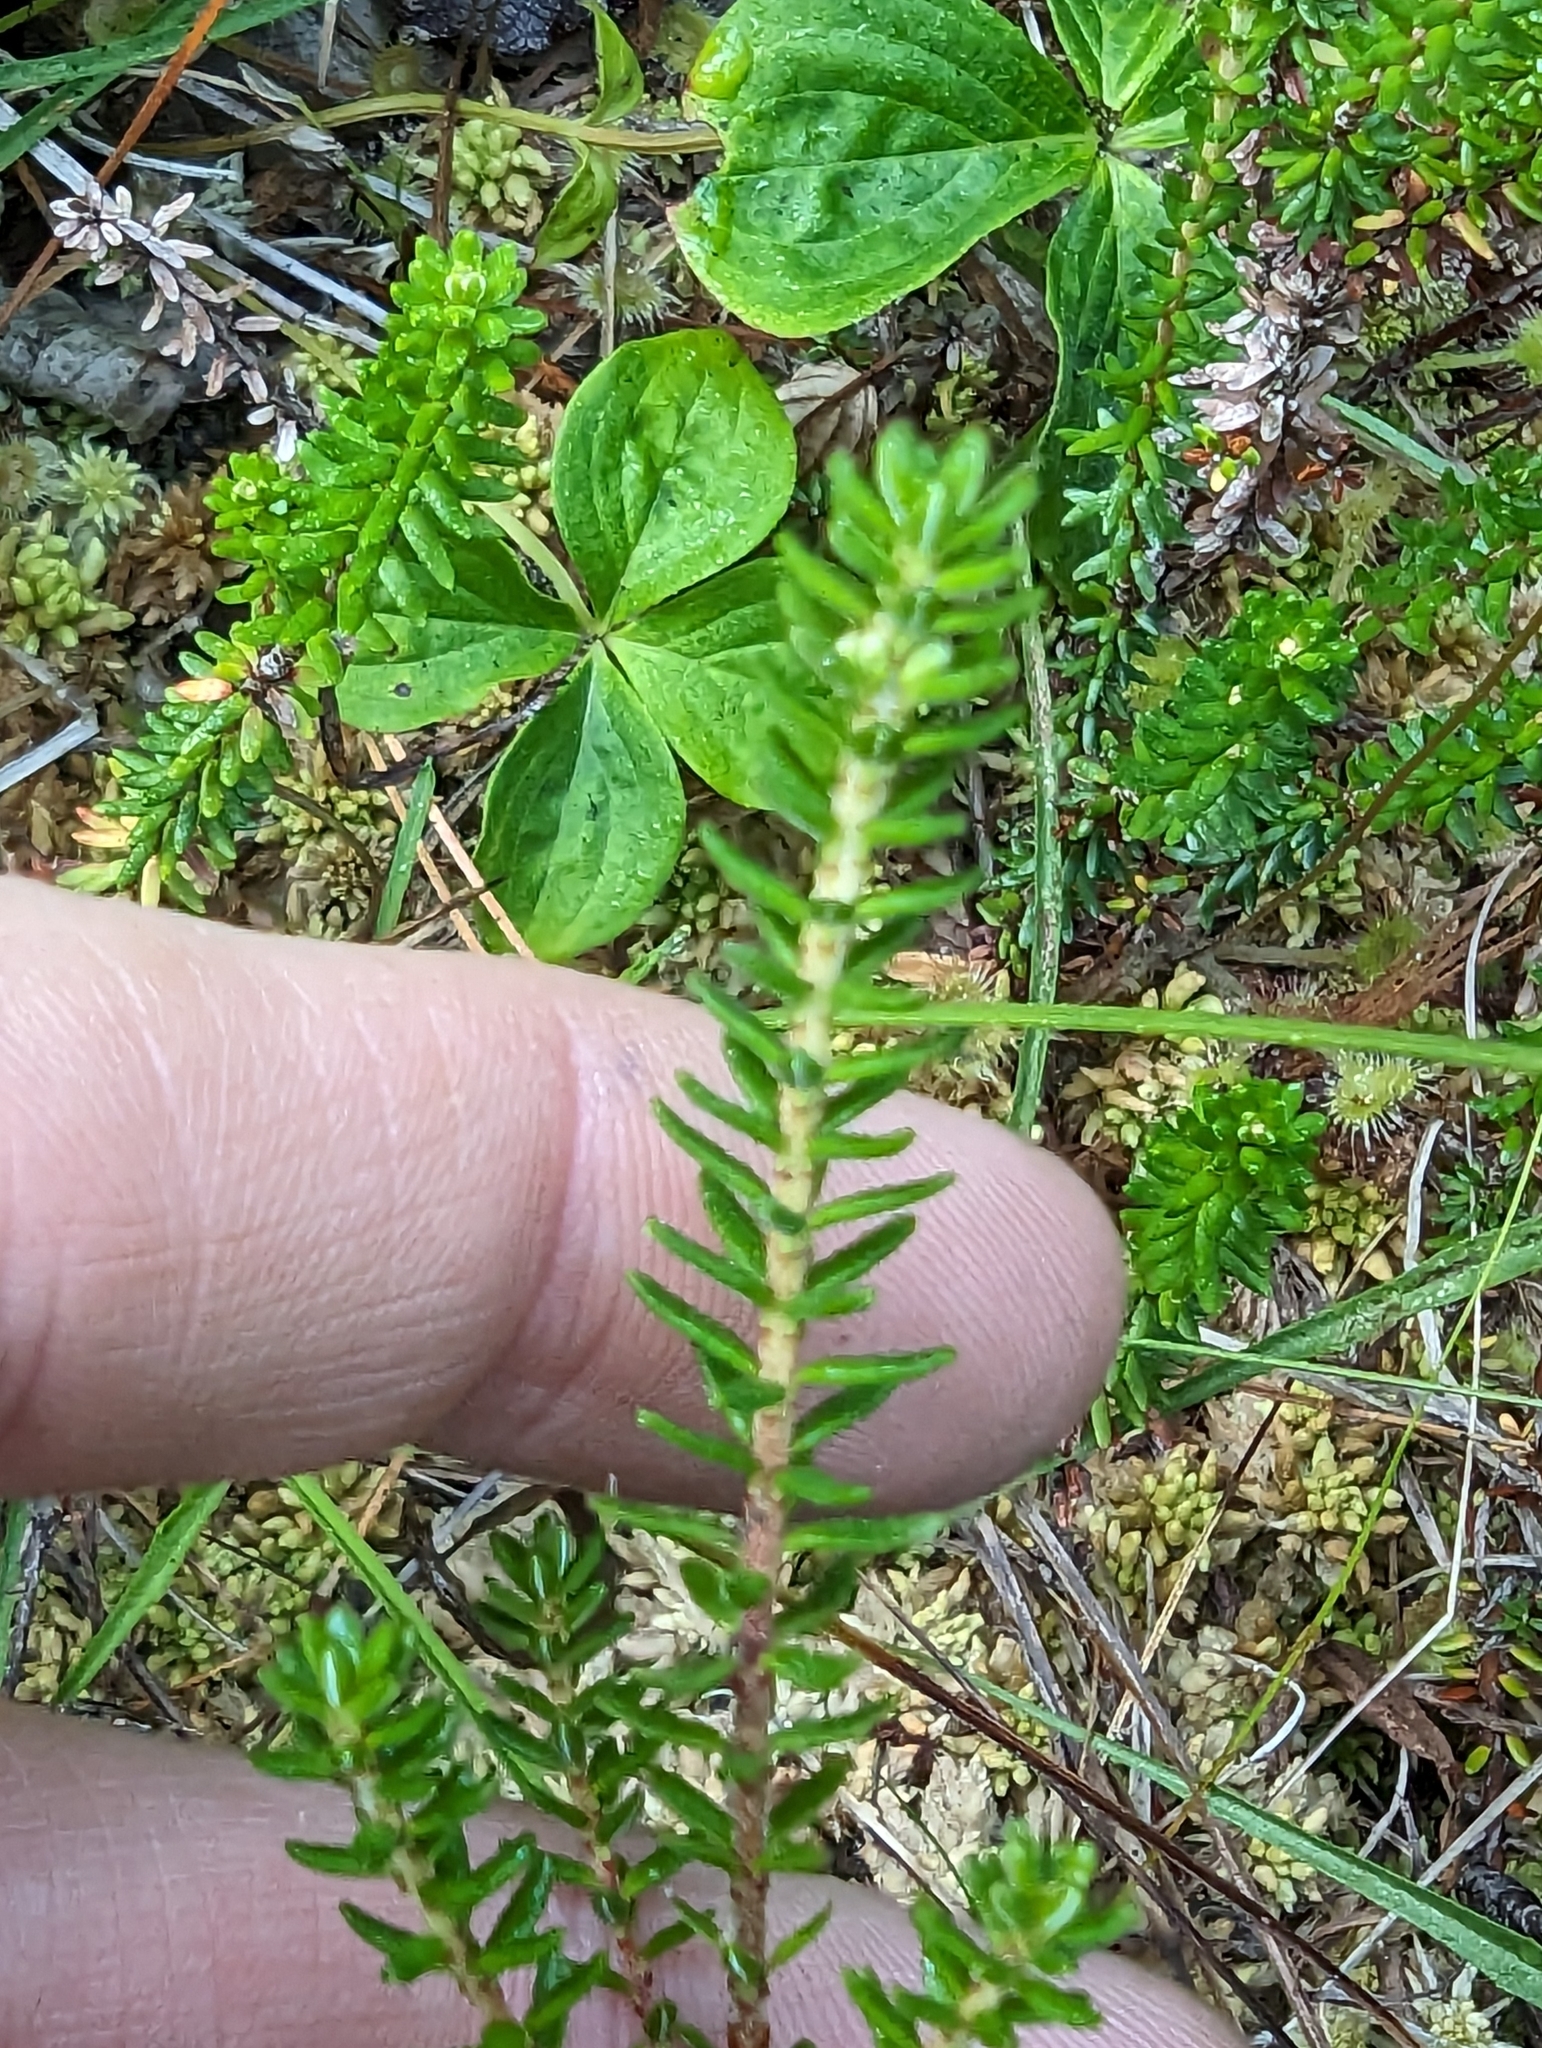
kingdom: Plantae
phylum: Tracheophyta
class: Magnoliopsida
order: Ericales
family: Ericaceae
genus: Empetrum
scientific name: Empetrum nigrum
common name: Black crowberry
